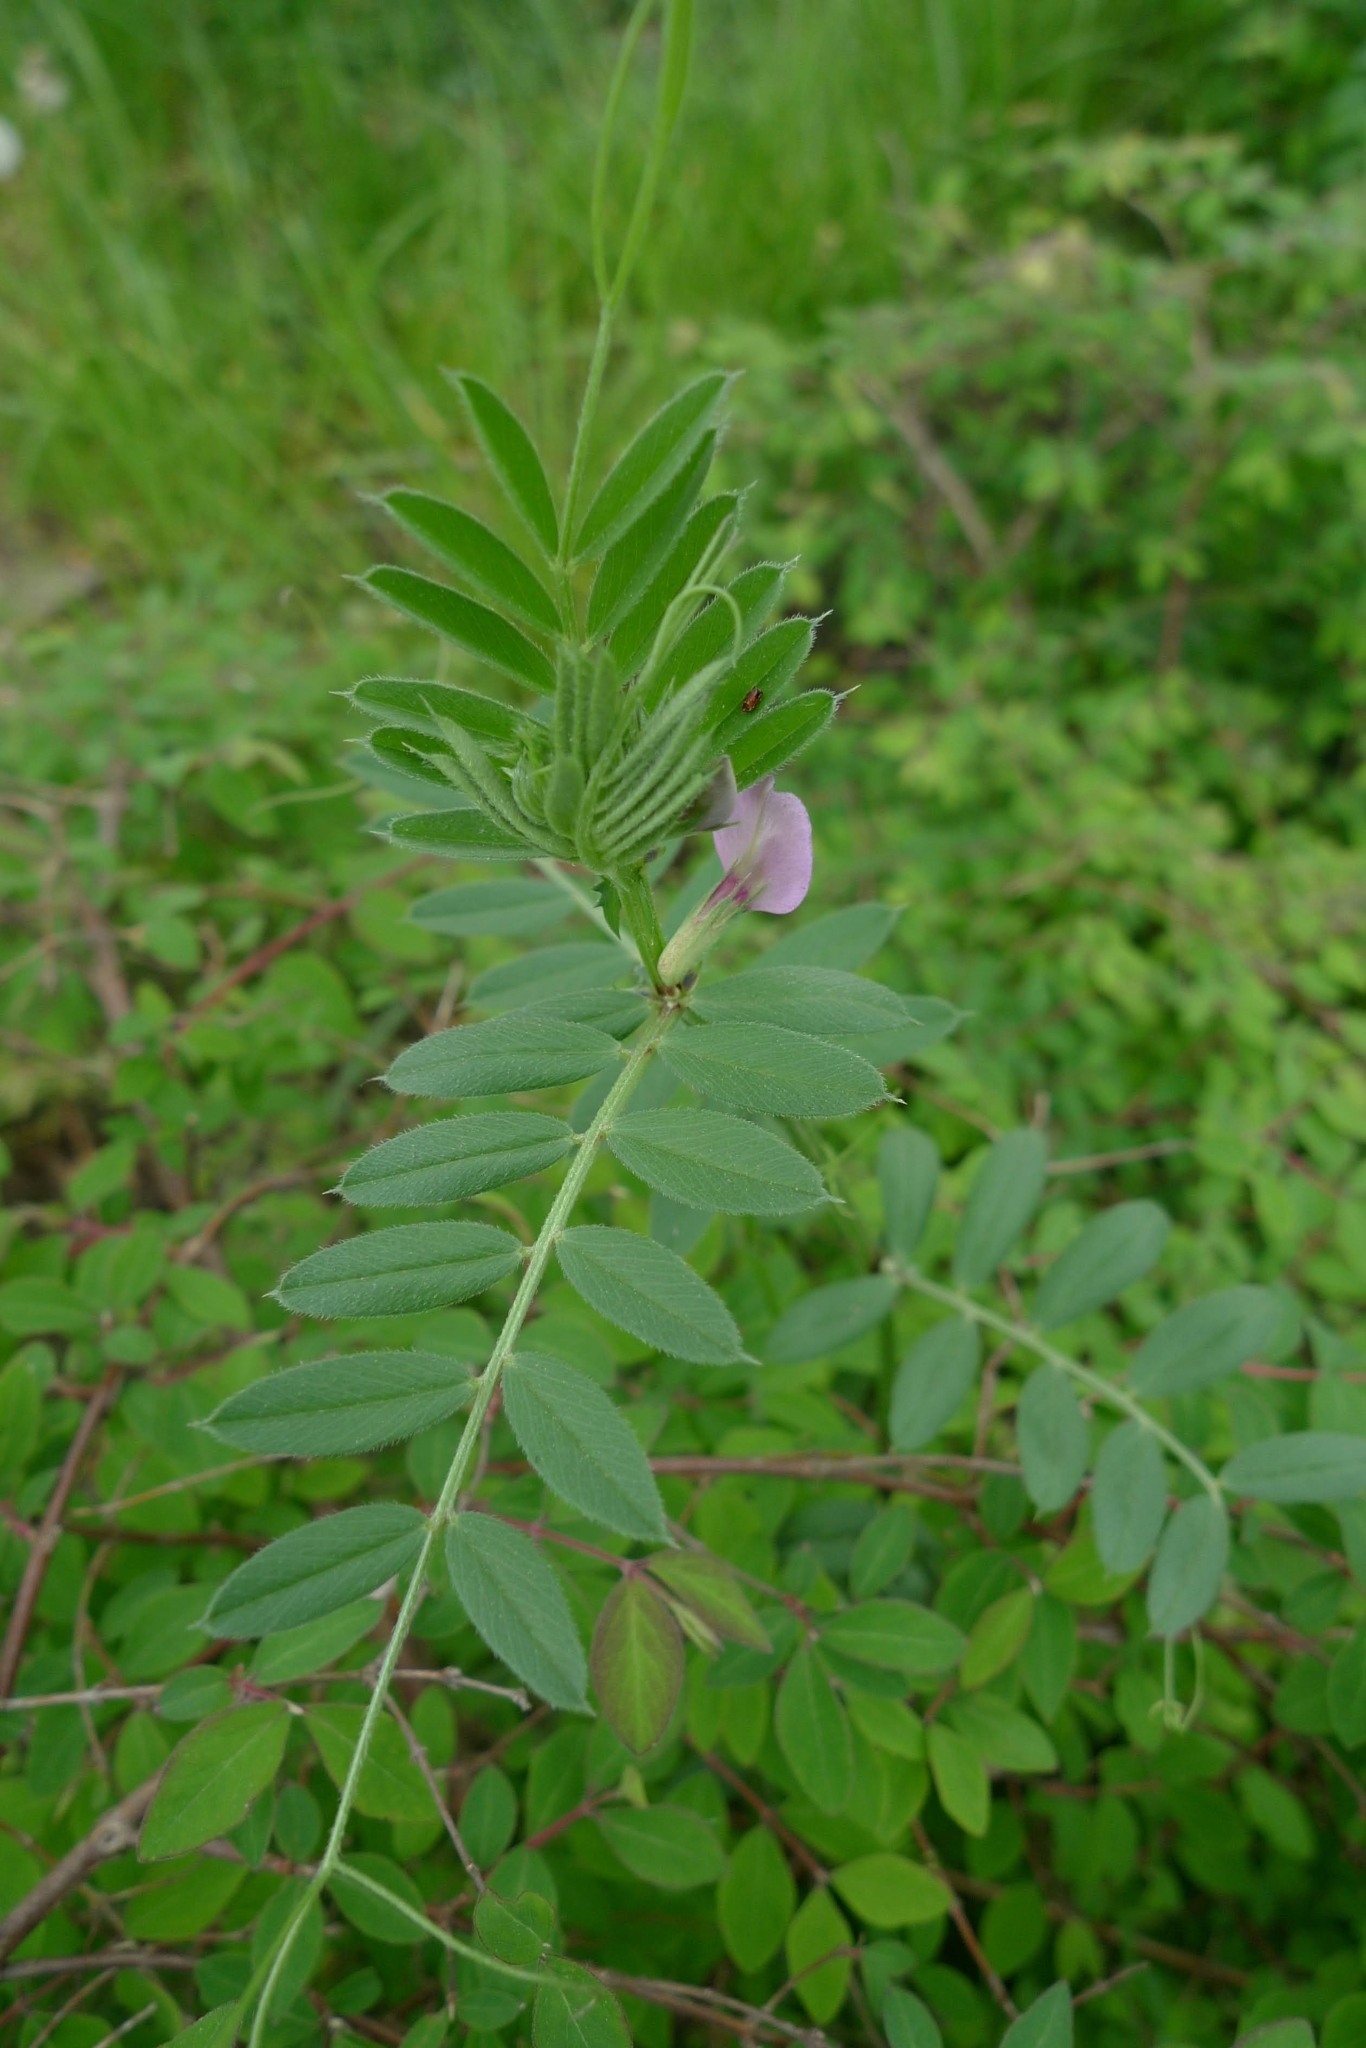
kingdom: Plantae
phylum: Tracheophyta
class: Magnoliopsida
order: Fabales
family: Fabaceae
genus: Vicia
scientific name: Vicia sativa
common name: Garden vetch
